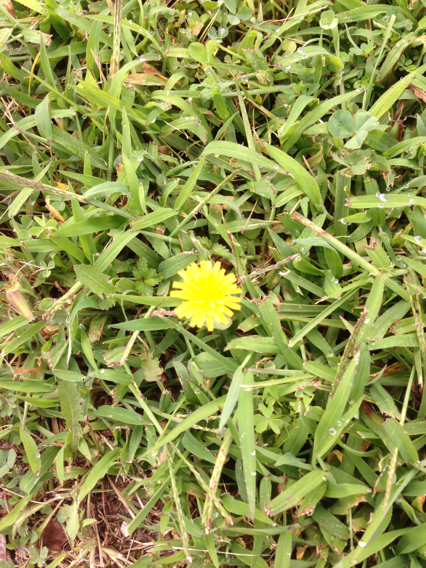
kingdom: Plantae
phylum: Tracheophyta
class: Magnoliopsida
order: Asterales
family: Asteraceae
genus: Taraxacum
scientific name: Taraxacum officinale
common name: Common dandelion
